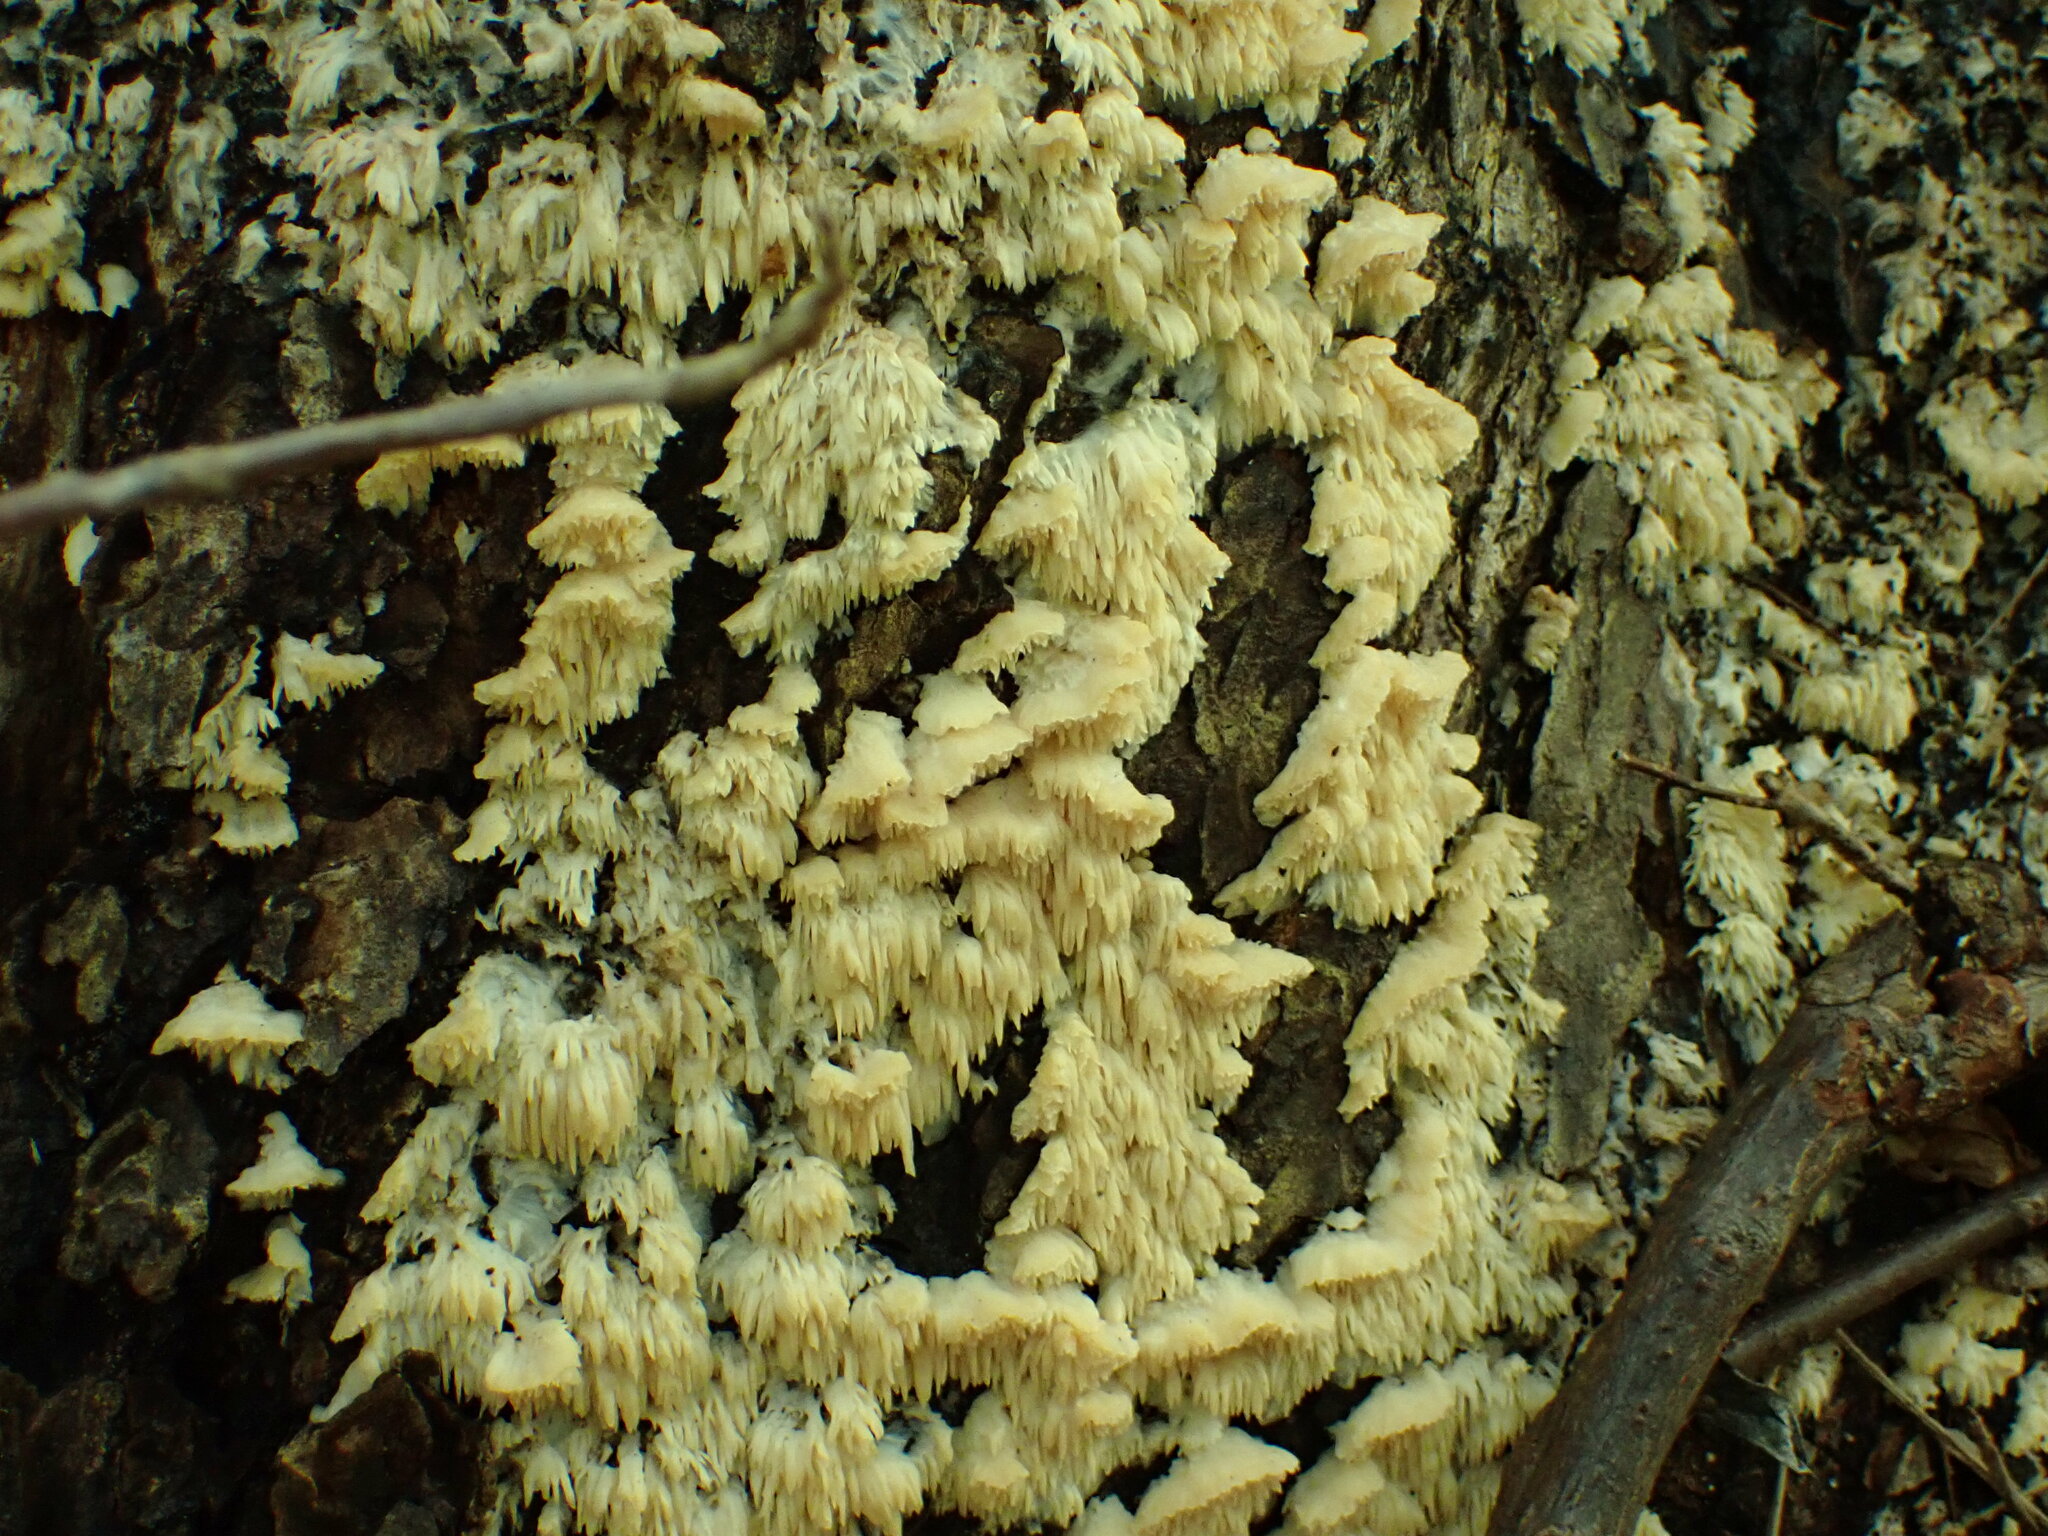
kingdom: Fungi
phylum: Basidiomycota
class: Agaricomycetes
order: Agaricales
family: Radulomycetaceae
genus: Radulomyces
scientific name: Radulomyces copelandii
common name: Asian beauty
